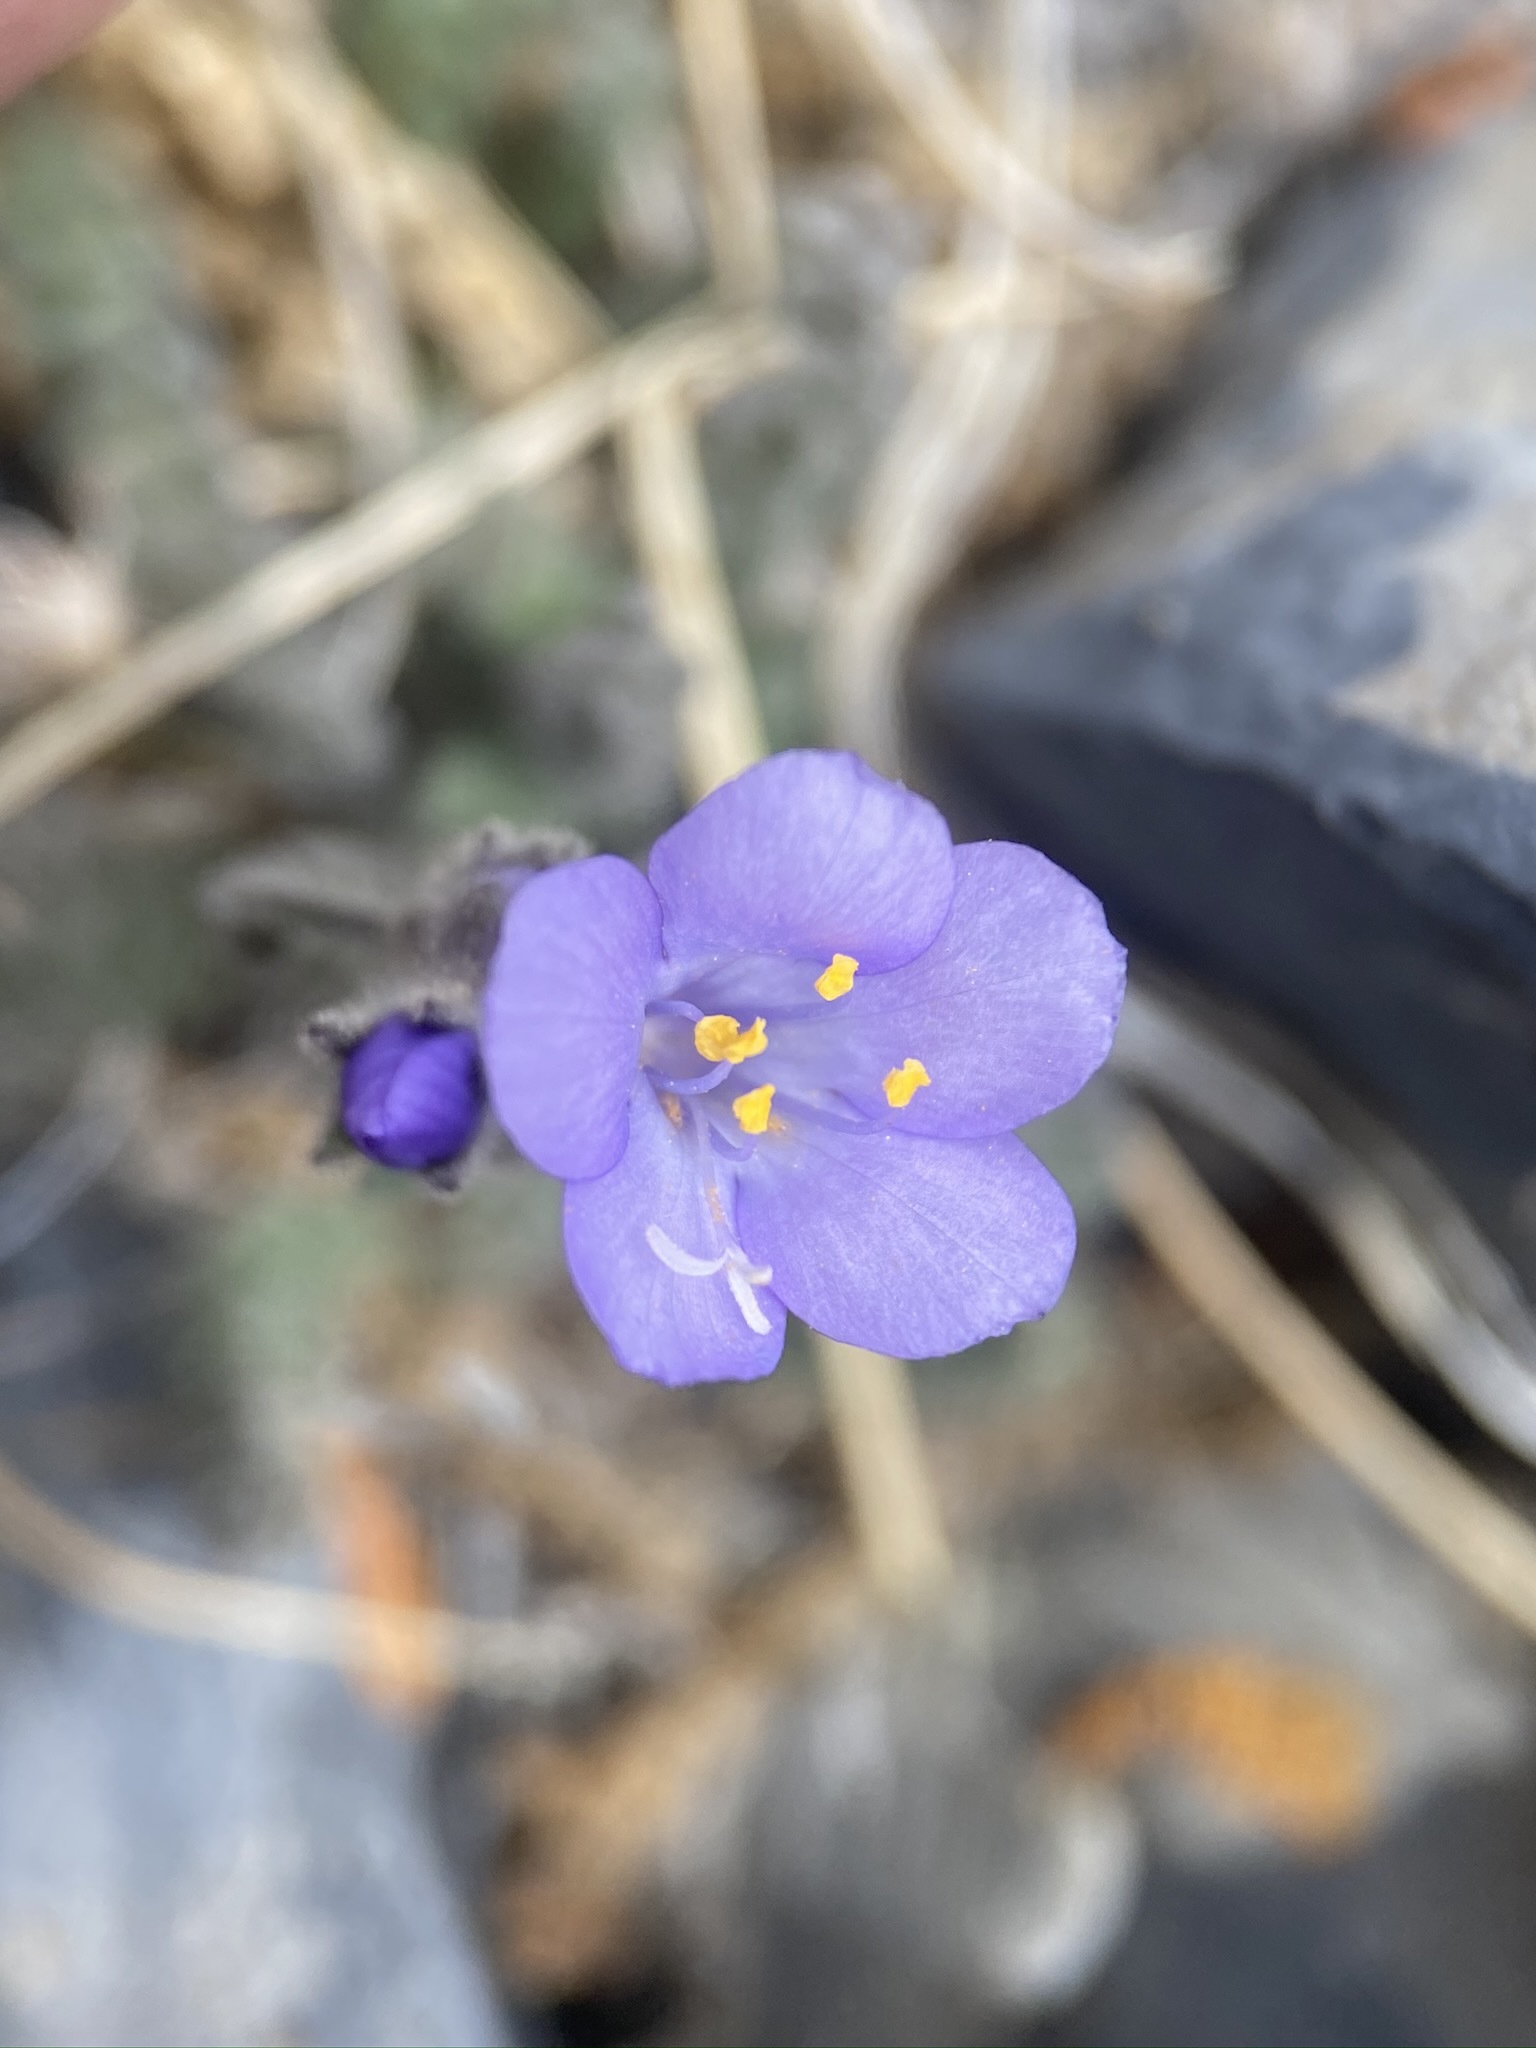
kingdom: Plantae
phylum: Tracheophyta
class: Magnoliopsida
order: Ericales
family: Polemoniaceae
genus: Polemonium
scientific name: Polemonium viscosum
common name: Skunk jacob's-ladder
